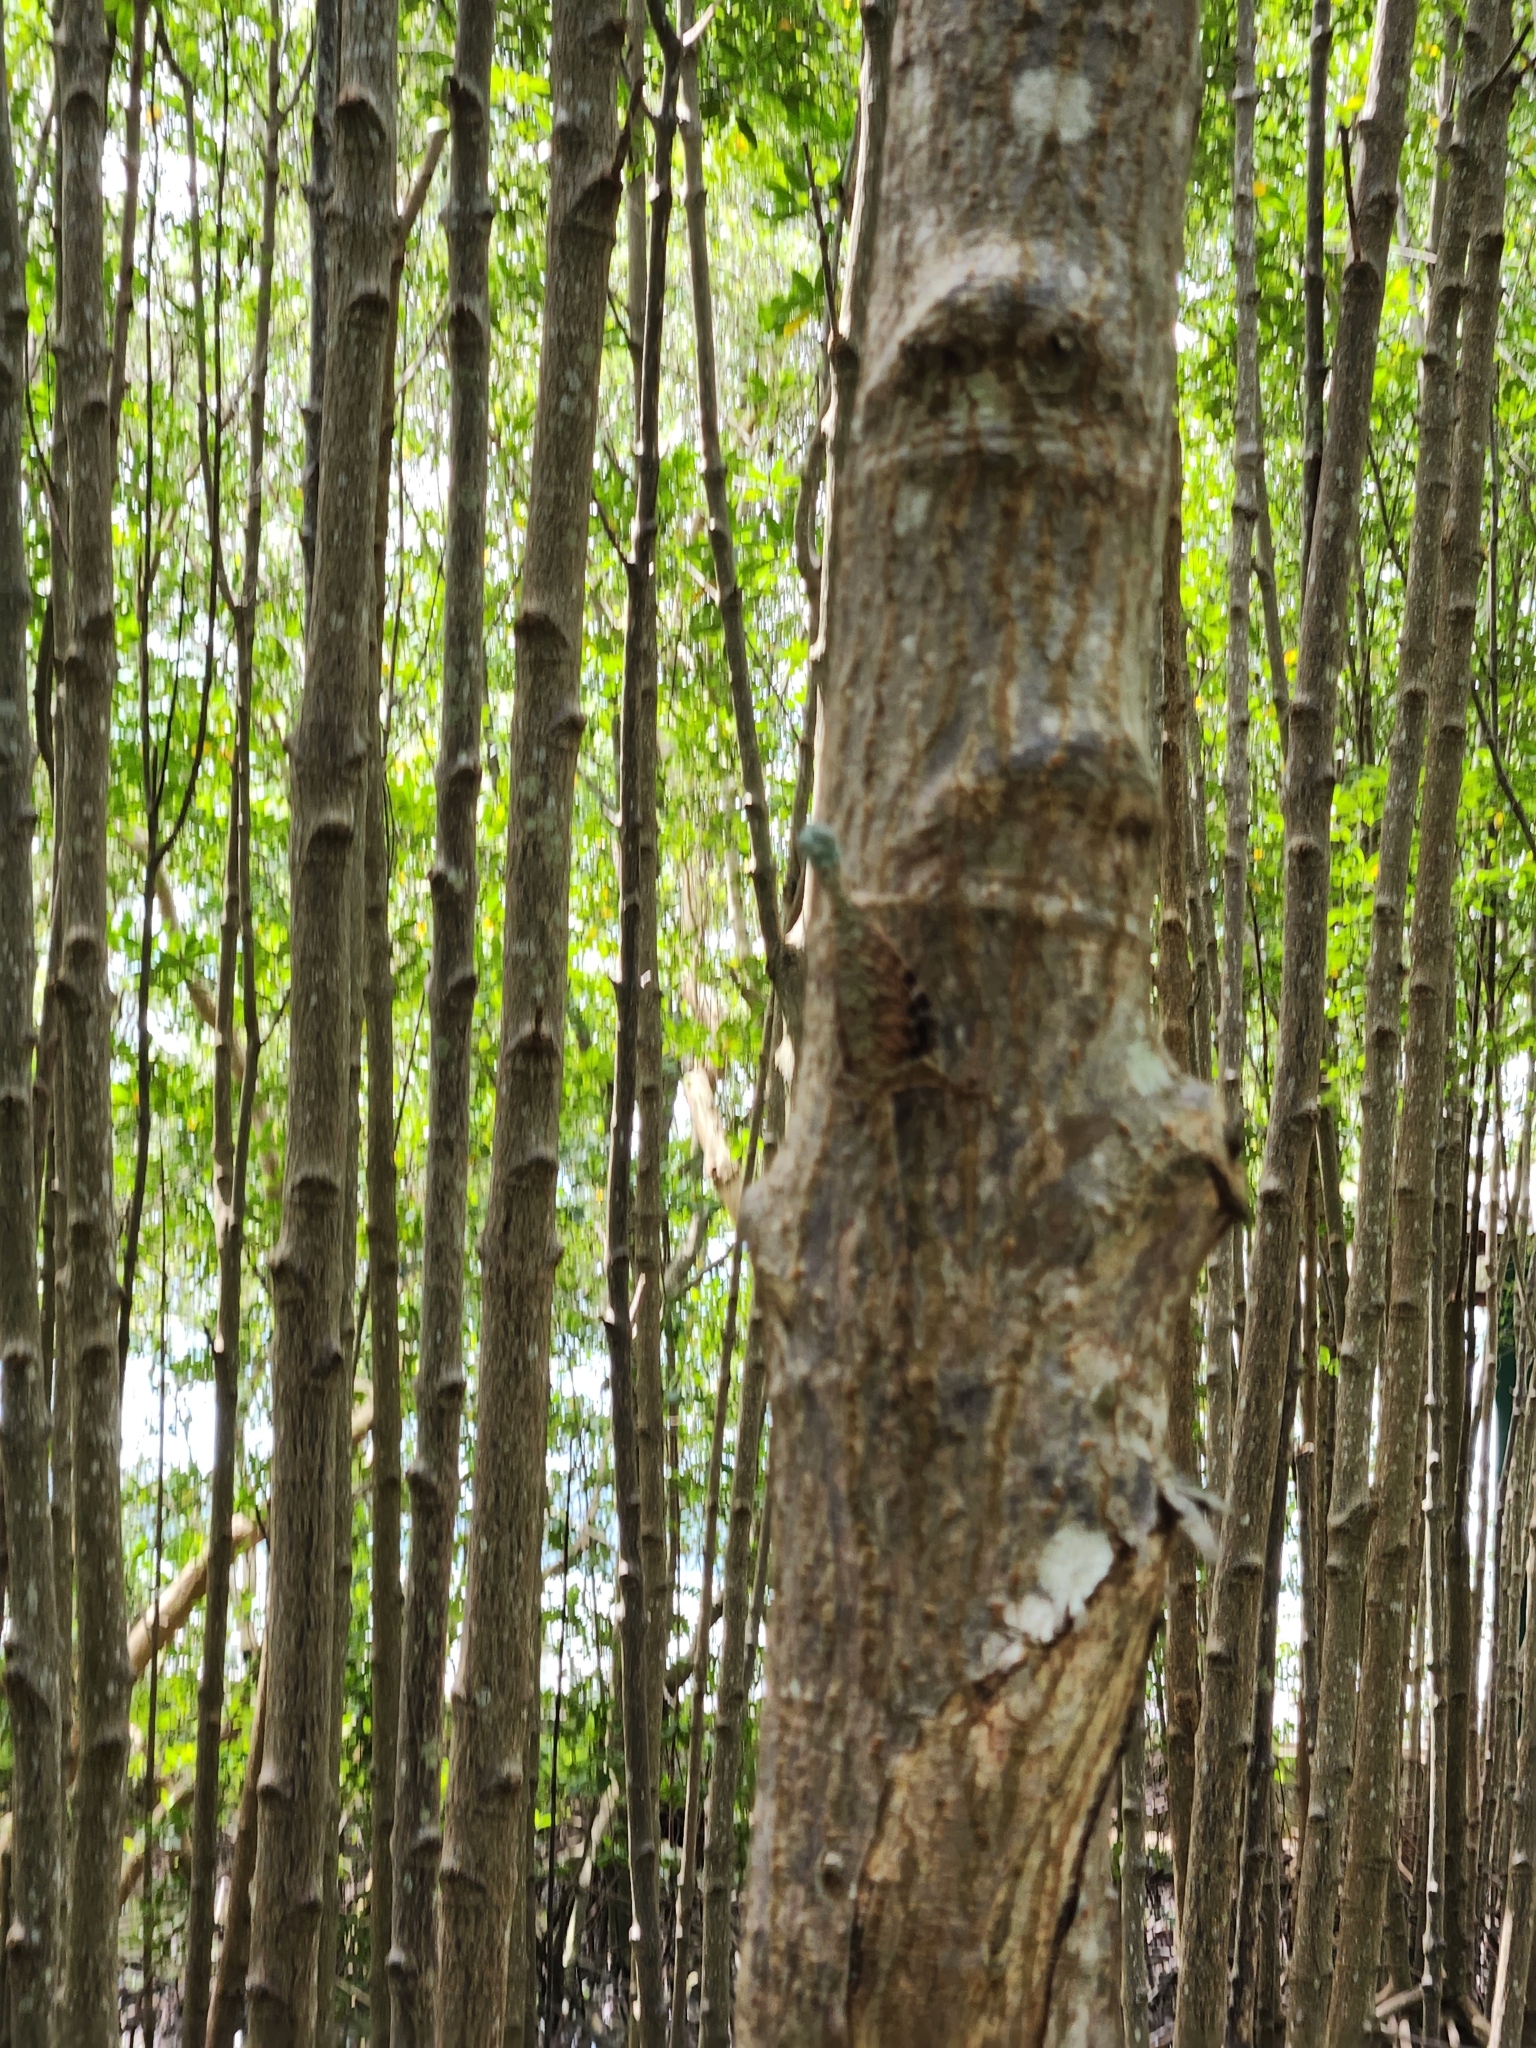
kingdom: Animalia
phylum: Chordata
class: Squamata
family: Agamidae
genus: Draco
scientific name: Draco sumatranus
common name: Common gliding lizard
